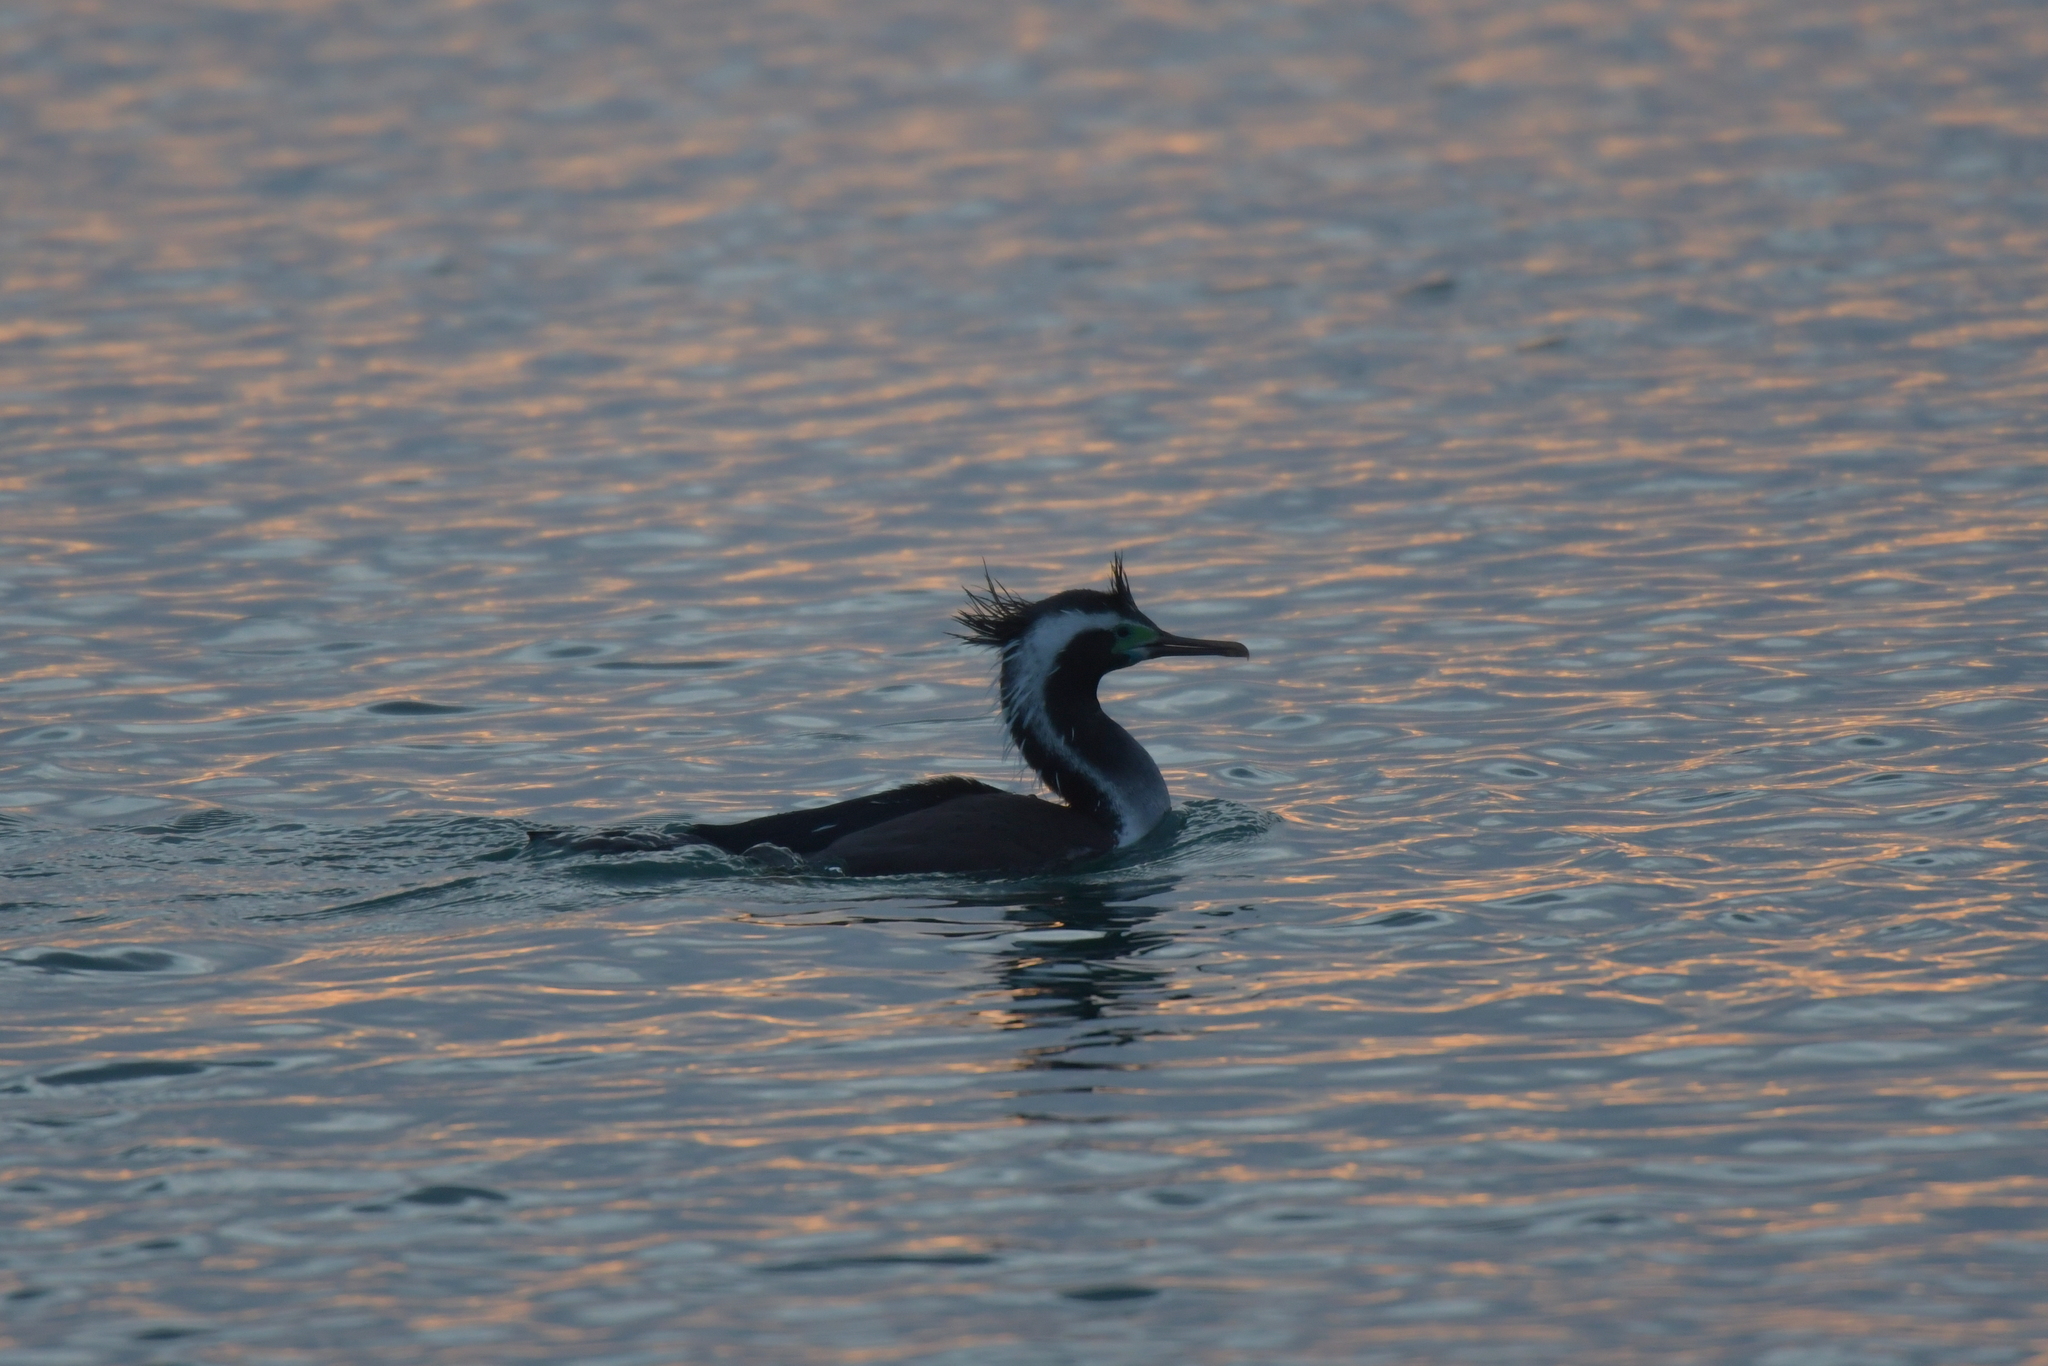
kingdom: Animalia
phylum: Chordata
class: Aves
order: Suliformes
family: Phalacrocoracidae
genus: Phalacrocorax
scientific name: Phalacrocorax punctatus
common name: Spotted shag
